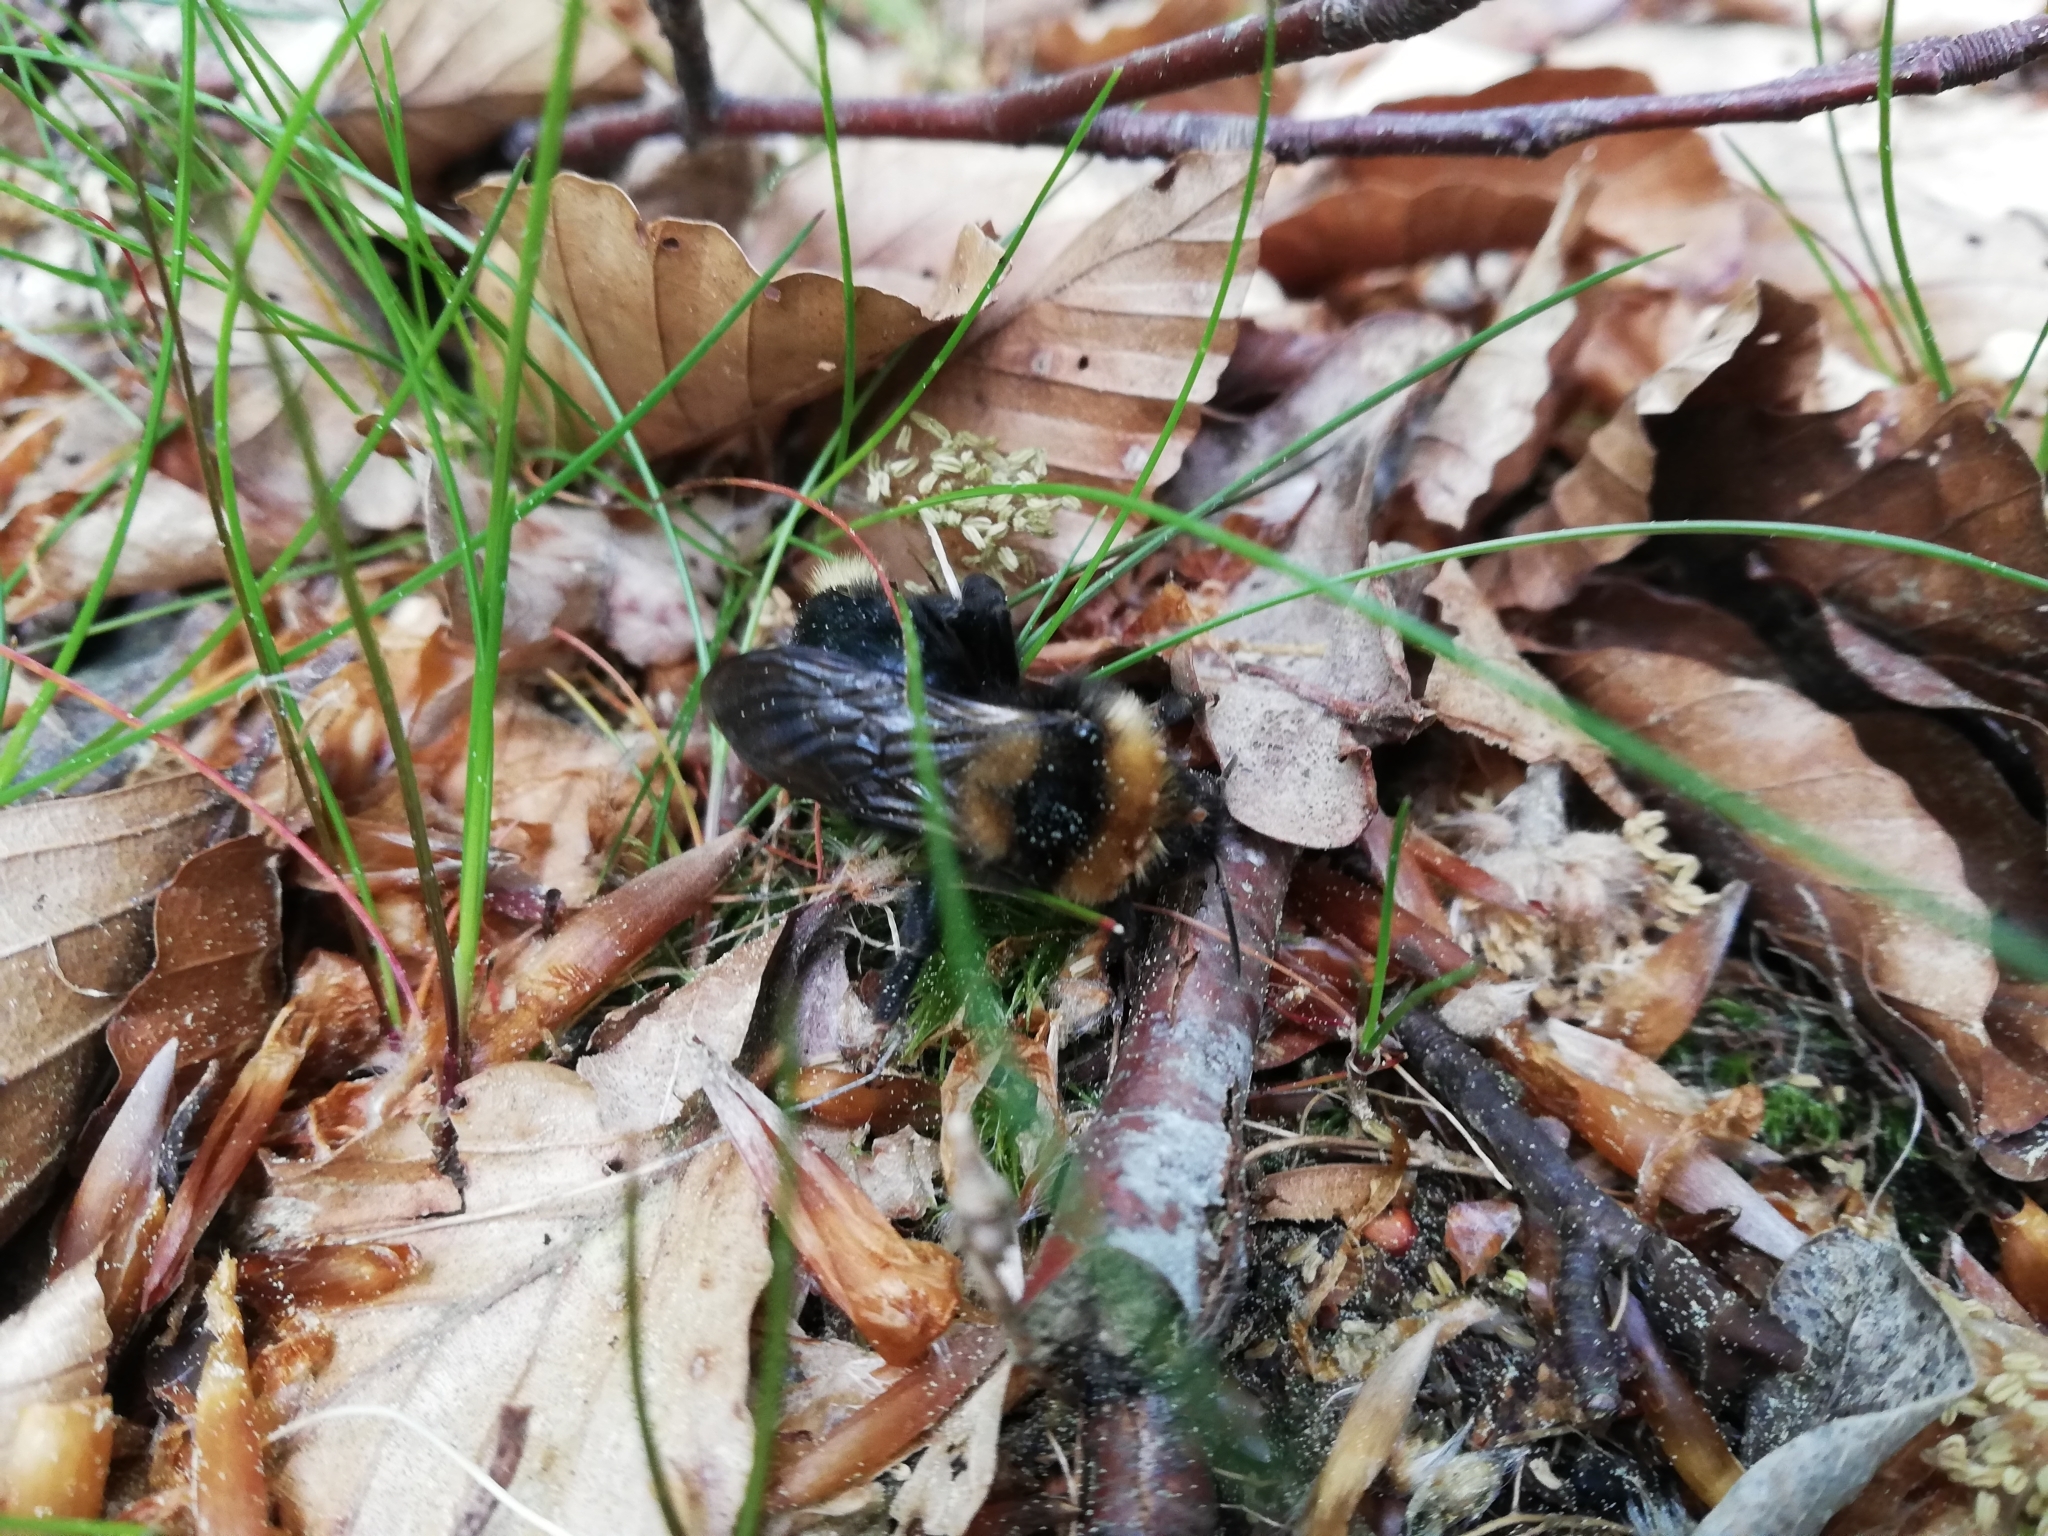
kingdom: Animalia
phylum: Arthropoda
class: Insecta
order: Hymenoptera
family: Apidae
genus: Bombus
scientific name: Bombus campestris
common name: Field cuckoo-bee
